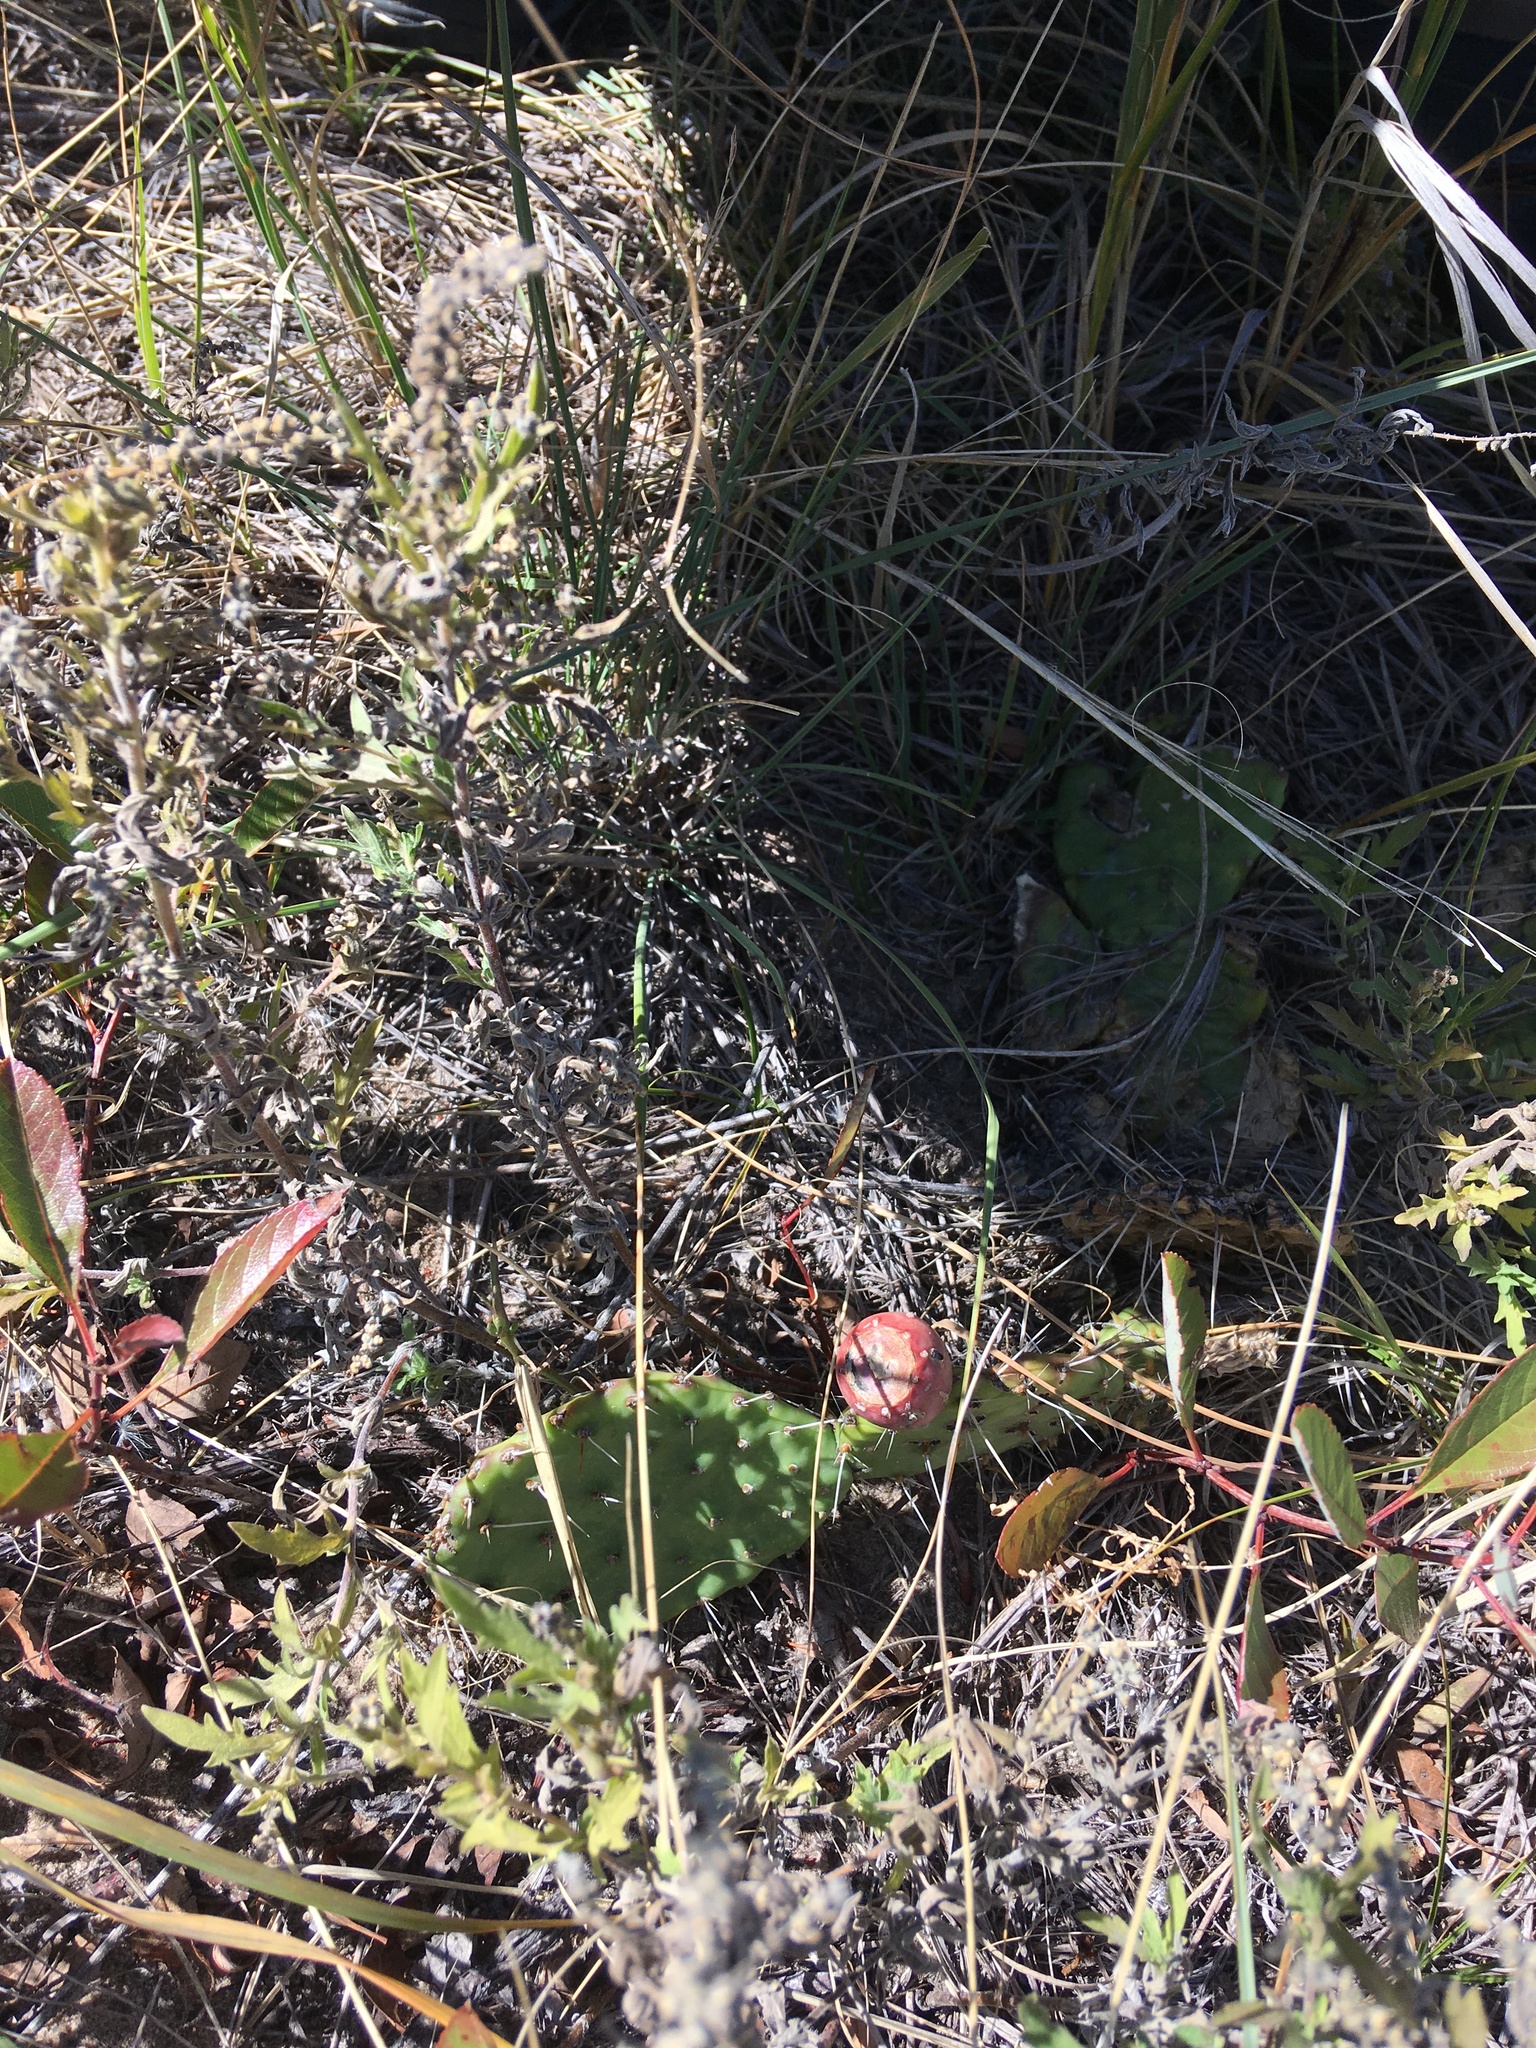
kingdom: Plantae
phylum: Tracheophyta
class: Magnoliopsida
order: Caryophyllales
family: Cactaceae
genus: Opuntia
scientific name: Opuntia cymochila
